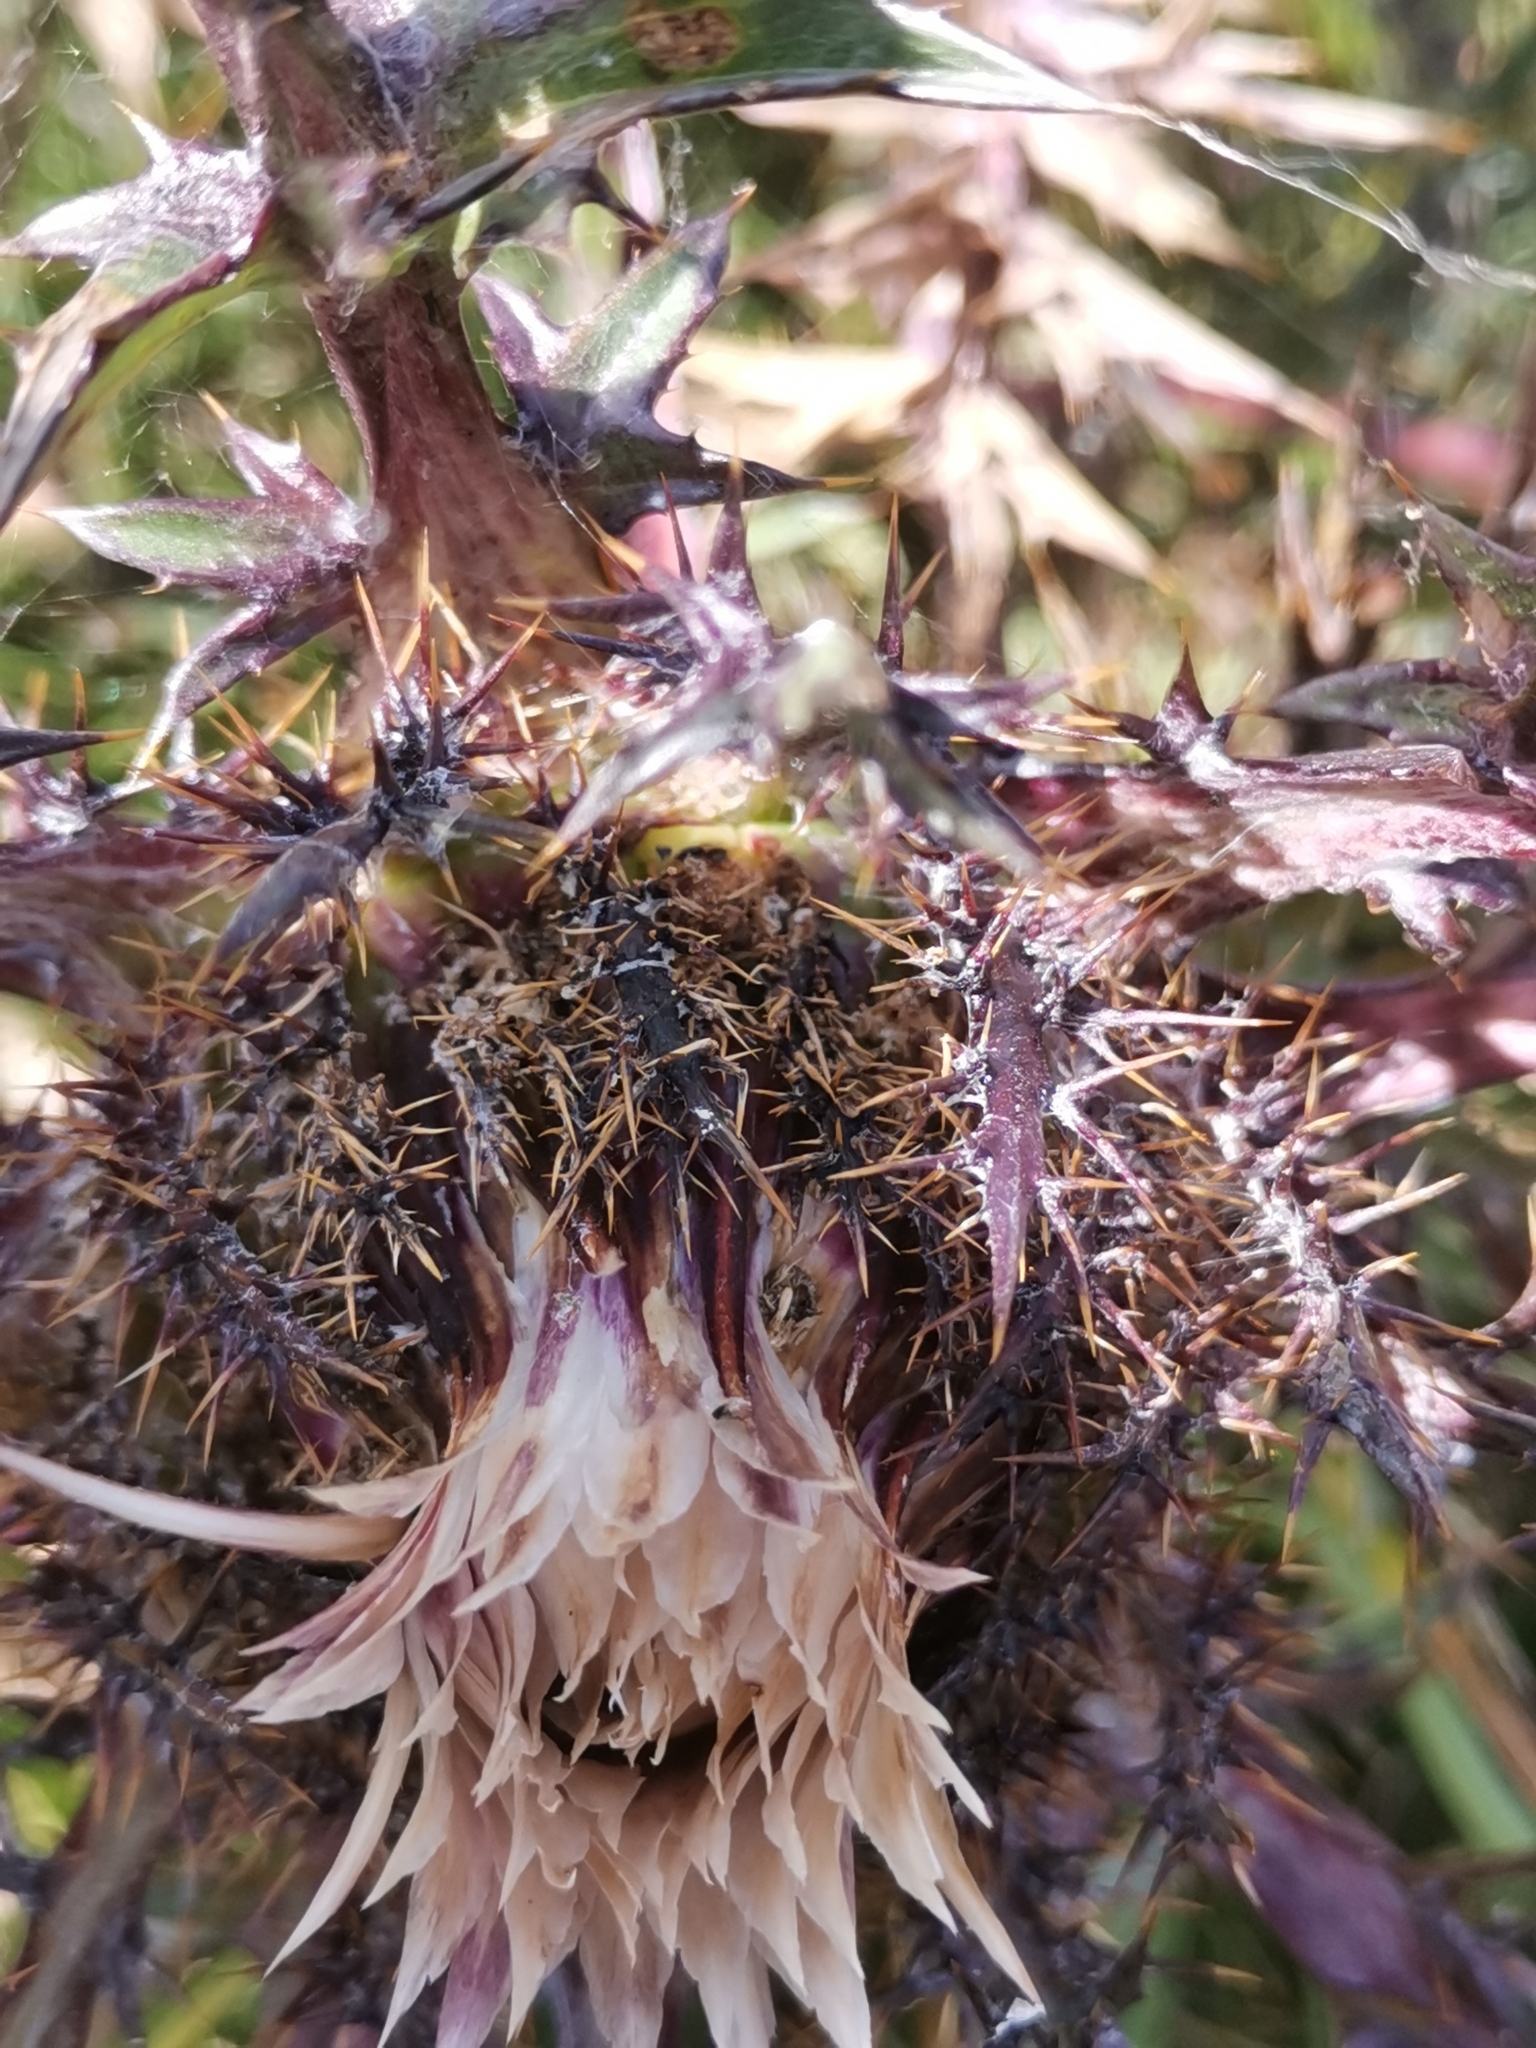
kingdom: Plantae
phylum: Tracheophyta
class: Magnoliopsida
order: Asterales
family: Asteraceae
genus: Carlina
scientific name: Carlina acaulis
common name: Stemless carline thistle
